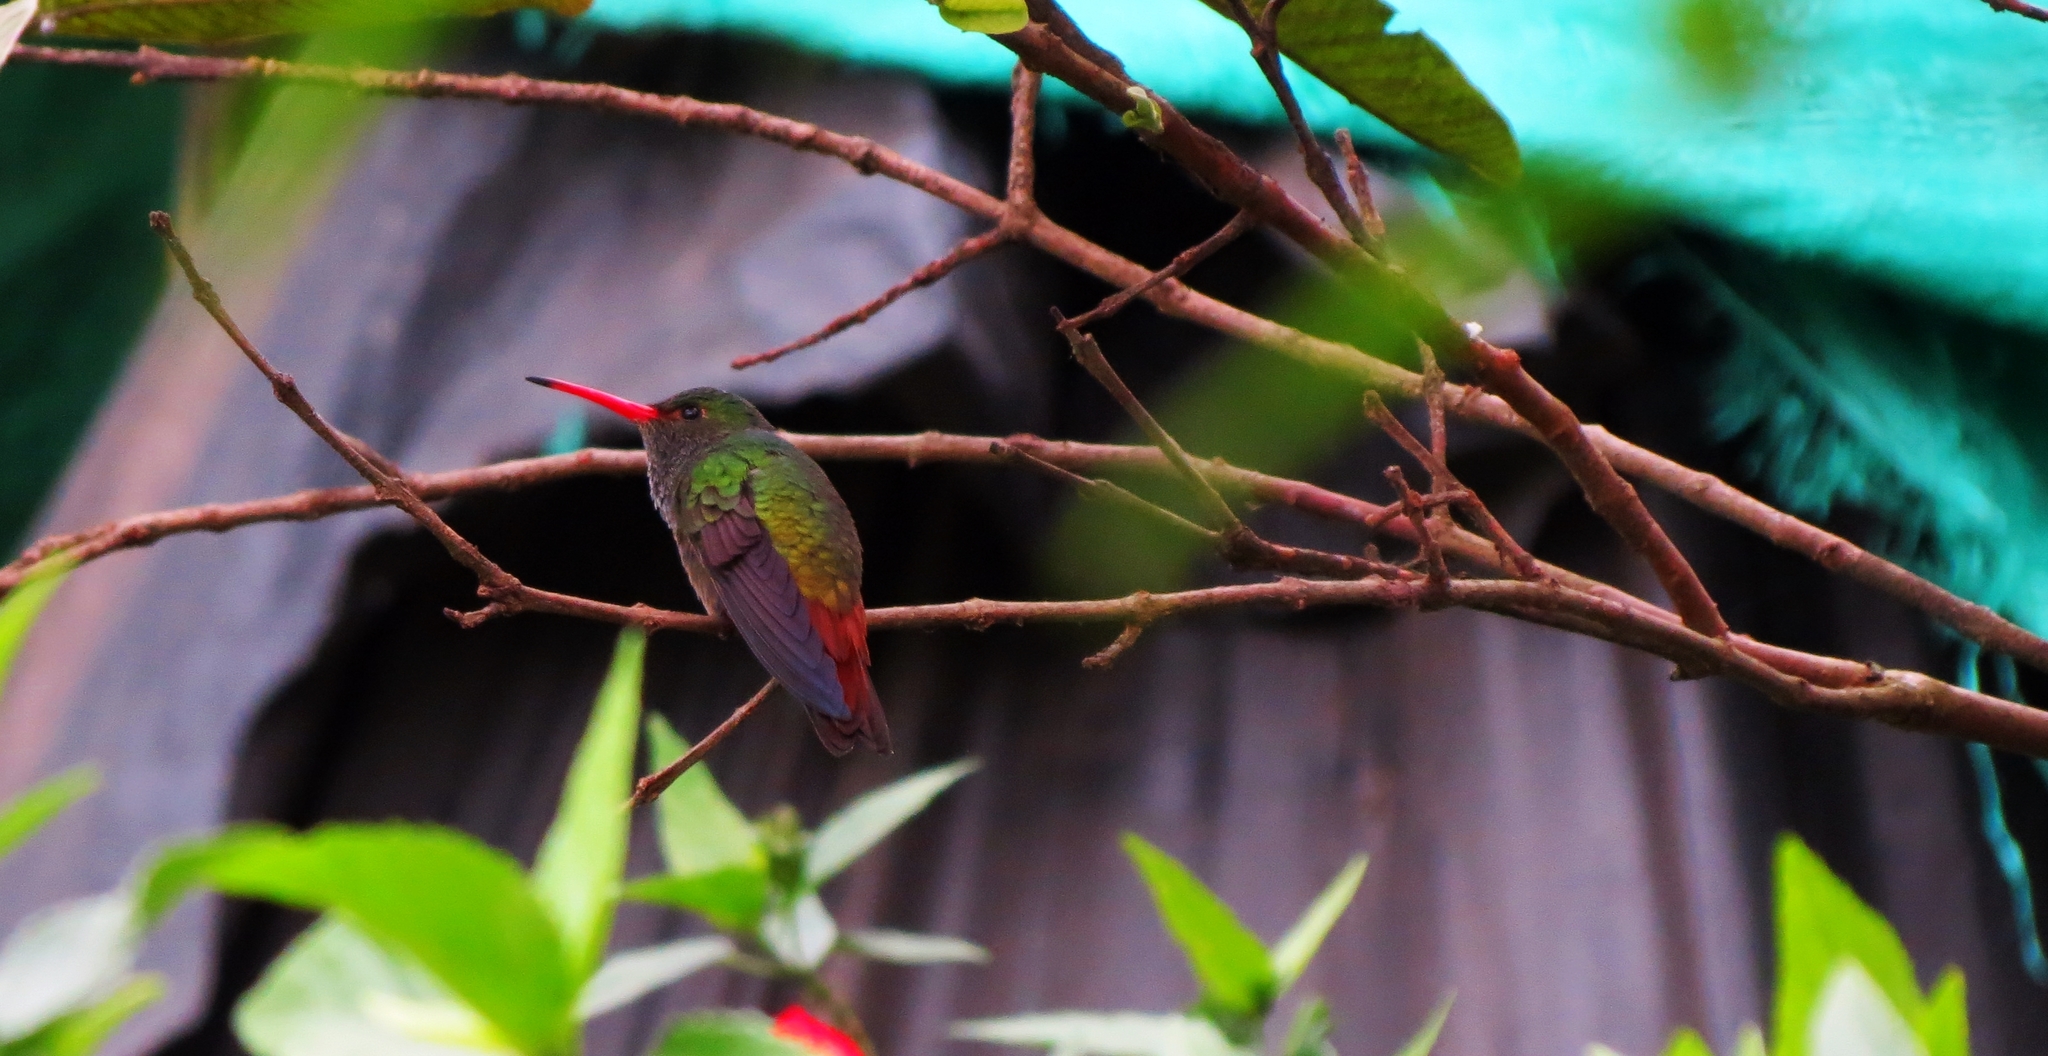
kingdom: Animalia
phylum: Chordata
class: Aves
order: Apodiformes
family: Trochilidae
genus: Amazilia
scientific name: Amazilia tzacatl
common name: Rufous-tailed hummingbird
